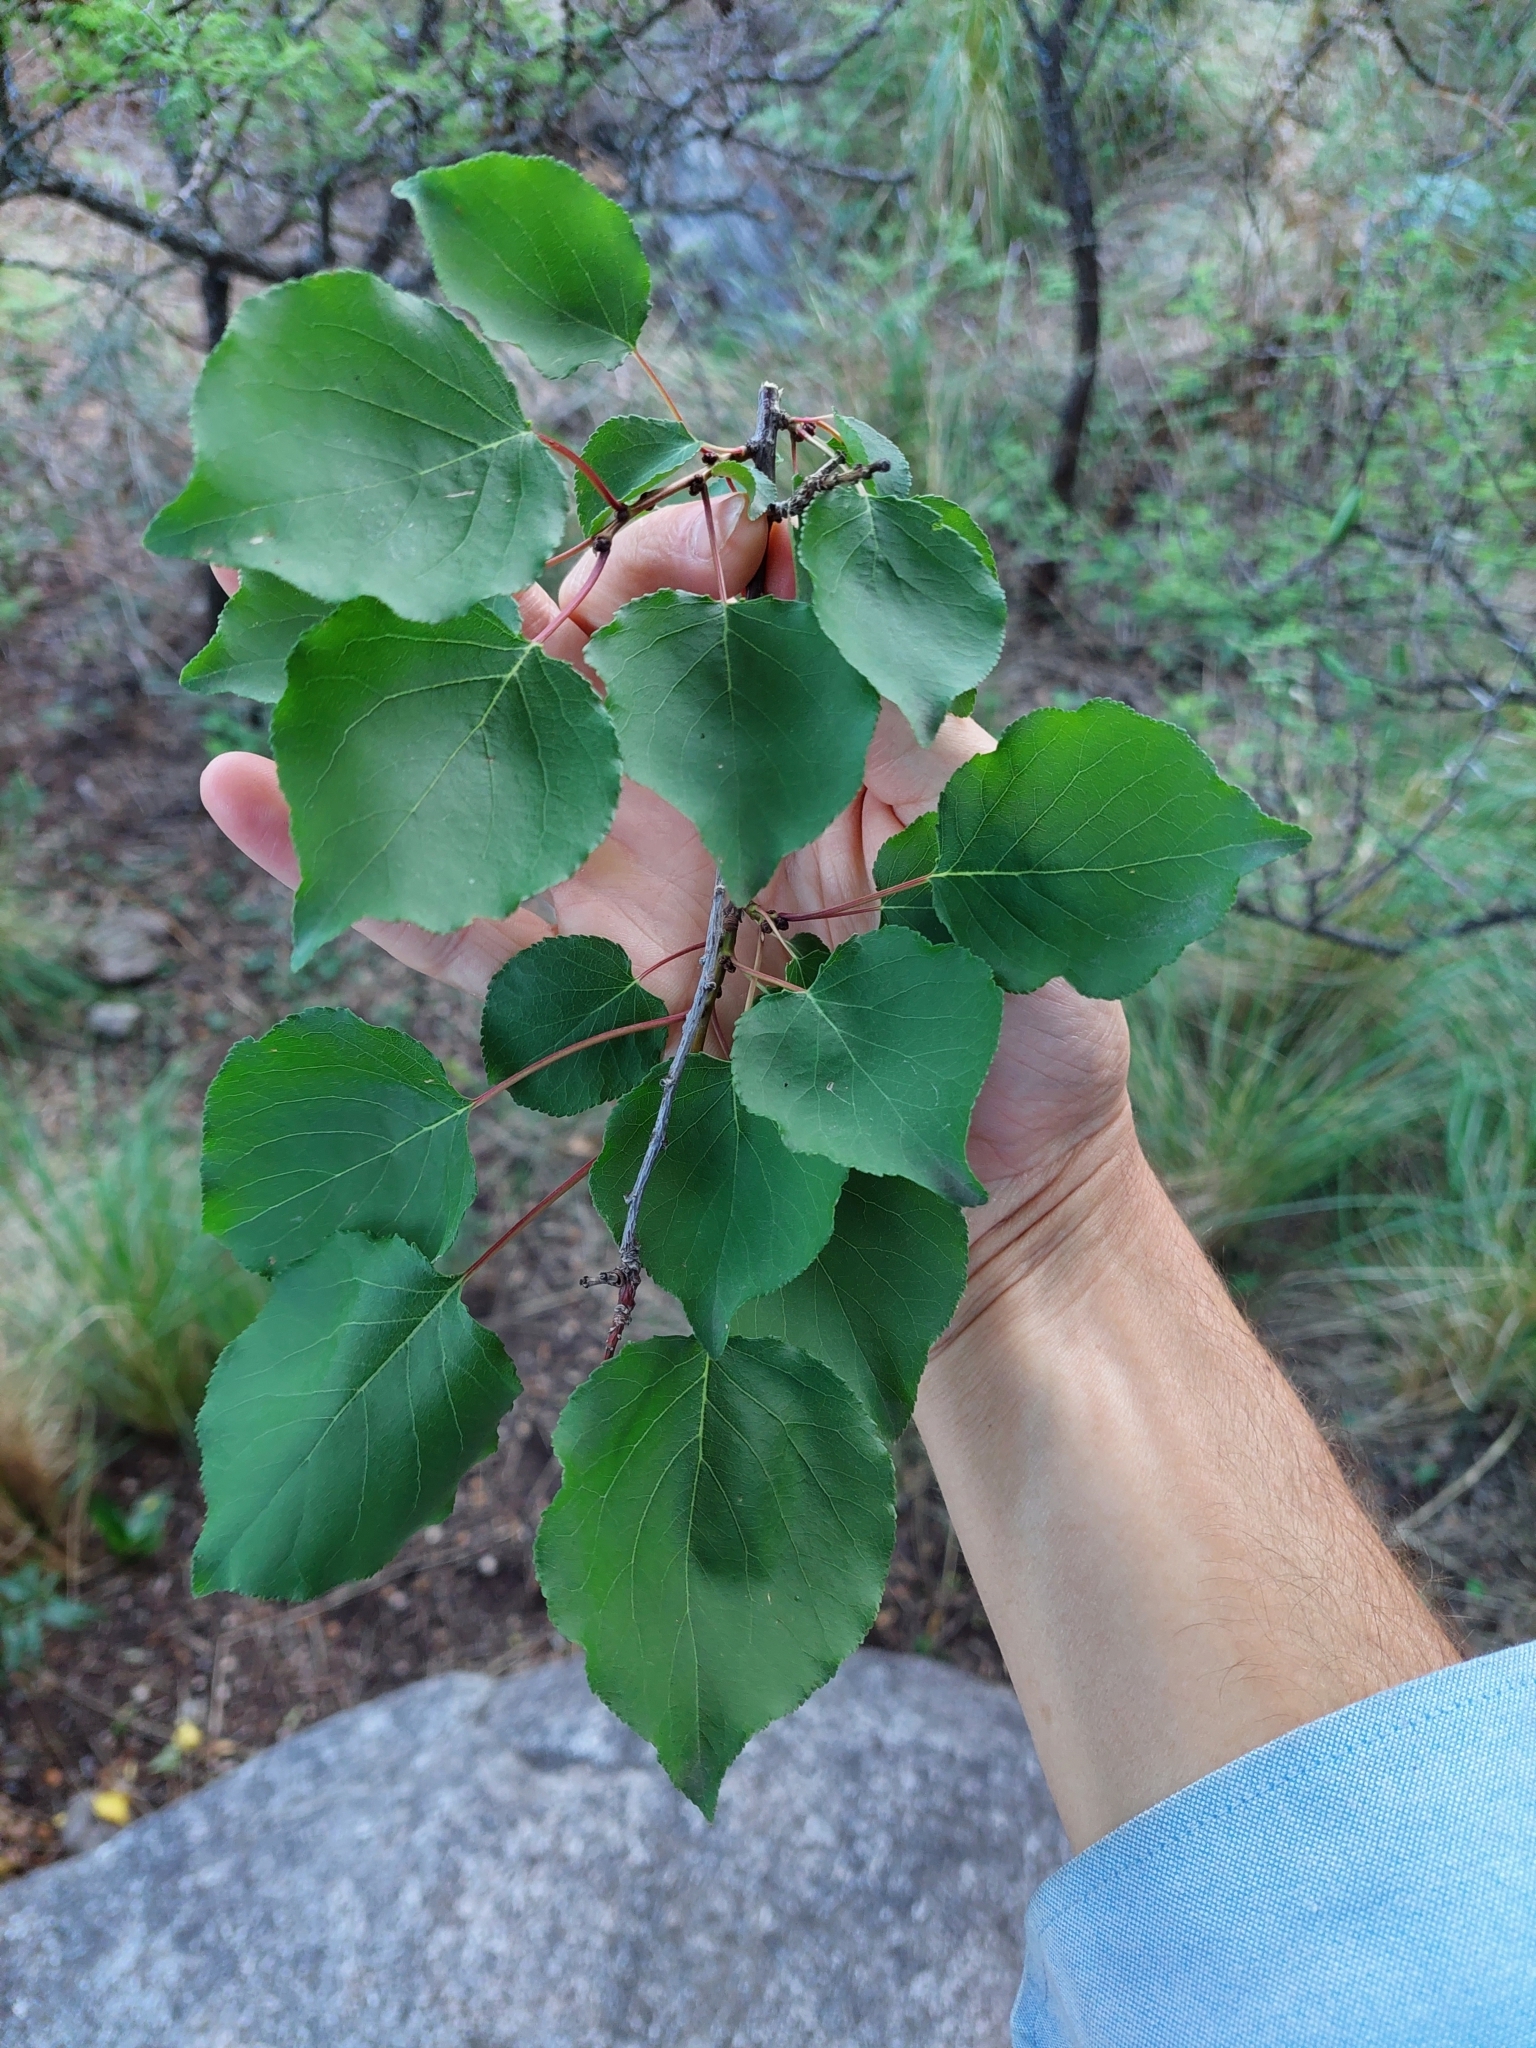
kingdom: Plantae
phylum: Tracheophyta
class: Magnoliopsida
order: Rosales
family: Rosaceae
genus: Prunus
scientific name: Prunus armeniaca
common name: Apricot
